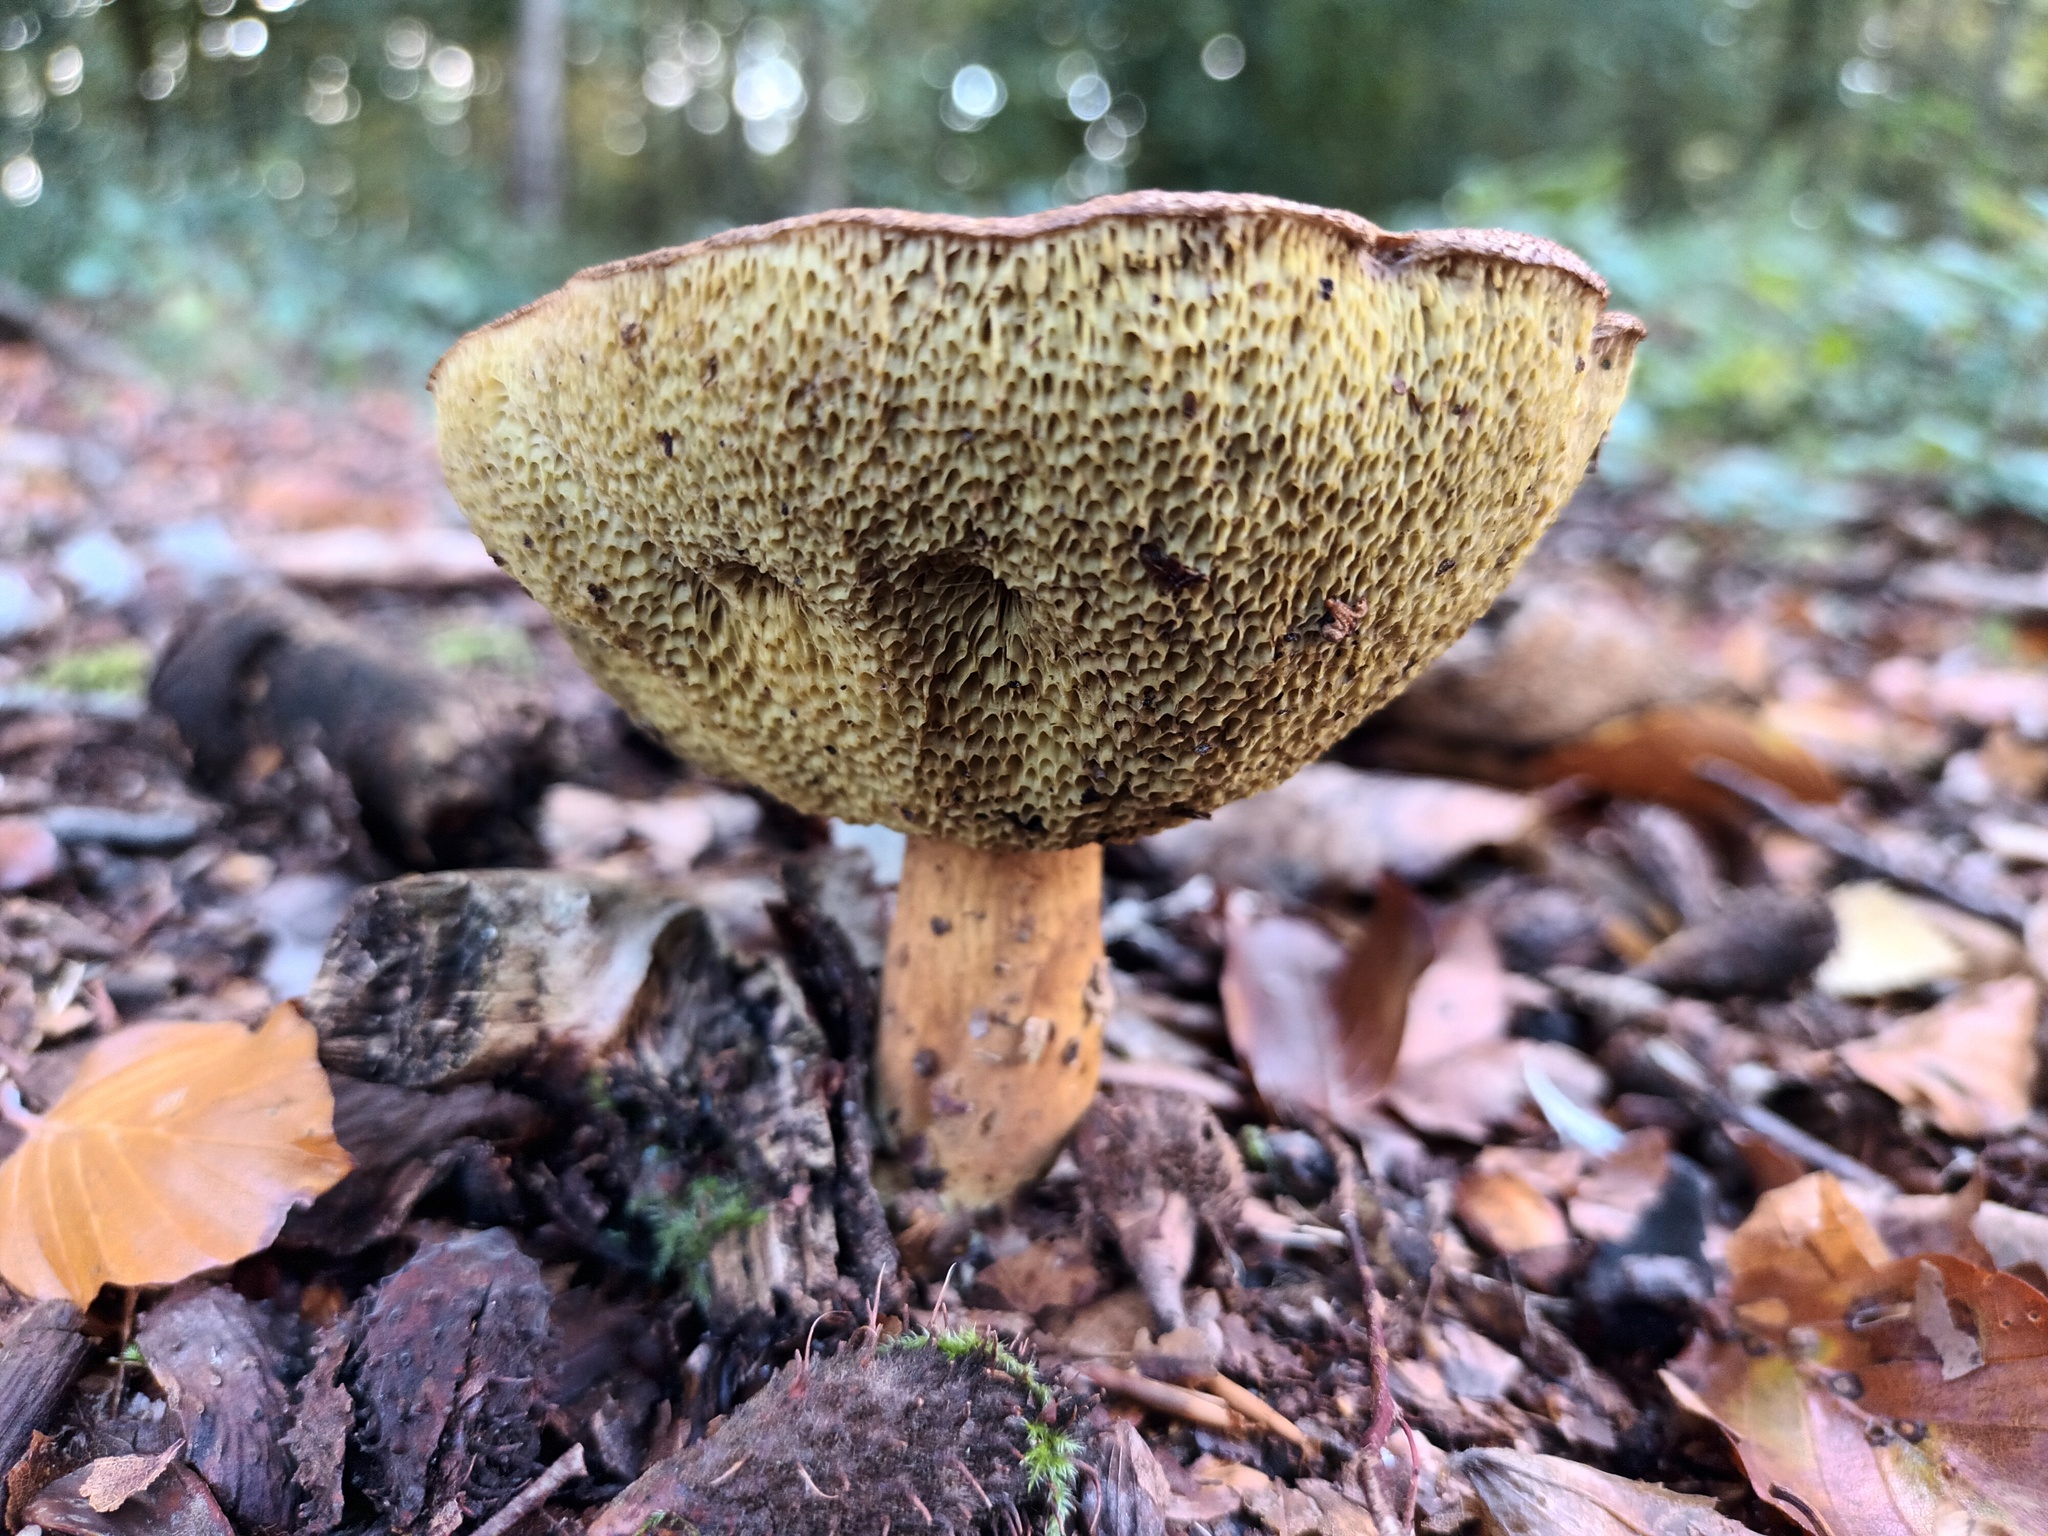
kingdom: Fungi
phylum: Basidiomycota
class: Agaricomycetes
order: Boletales
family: Boletaceae
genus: Imleria
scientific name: Imleria badia
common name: Bay bolete
